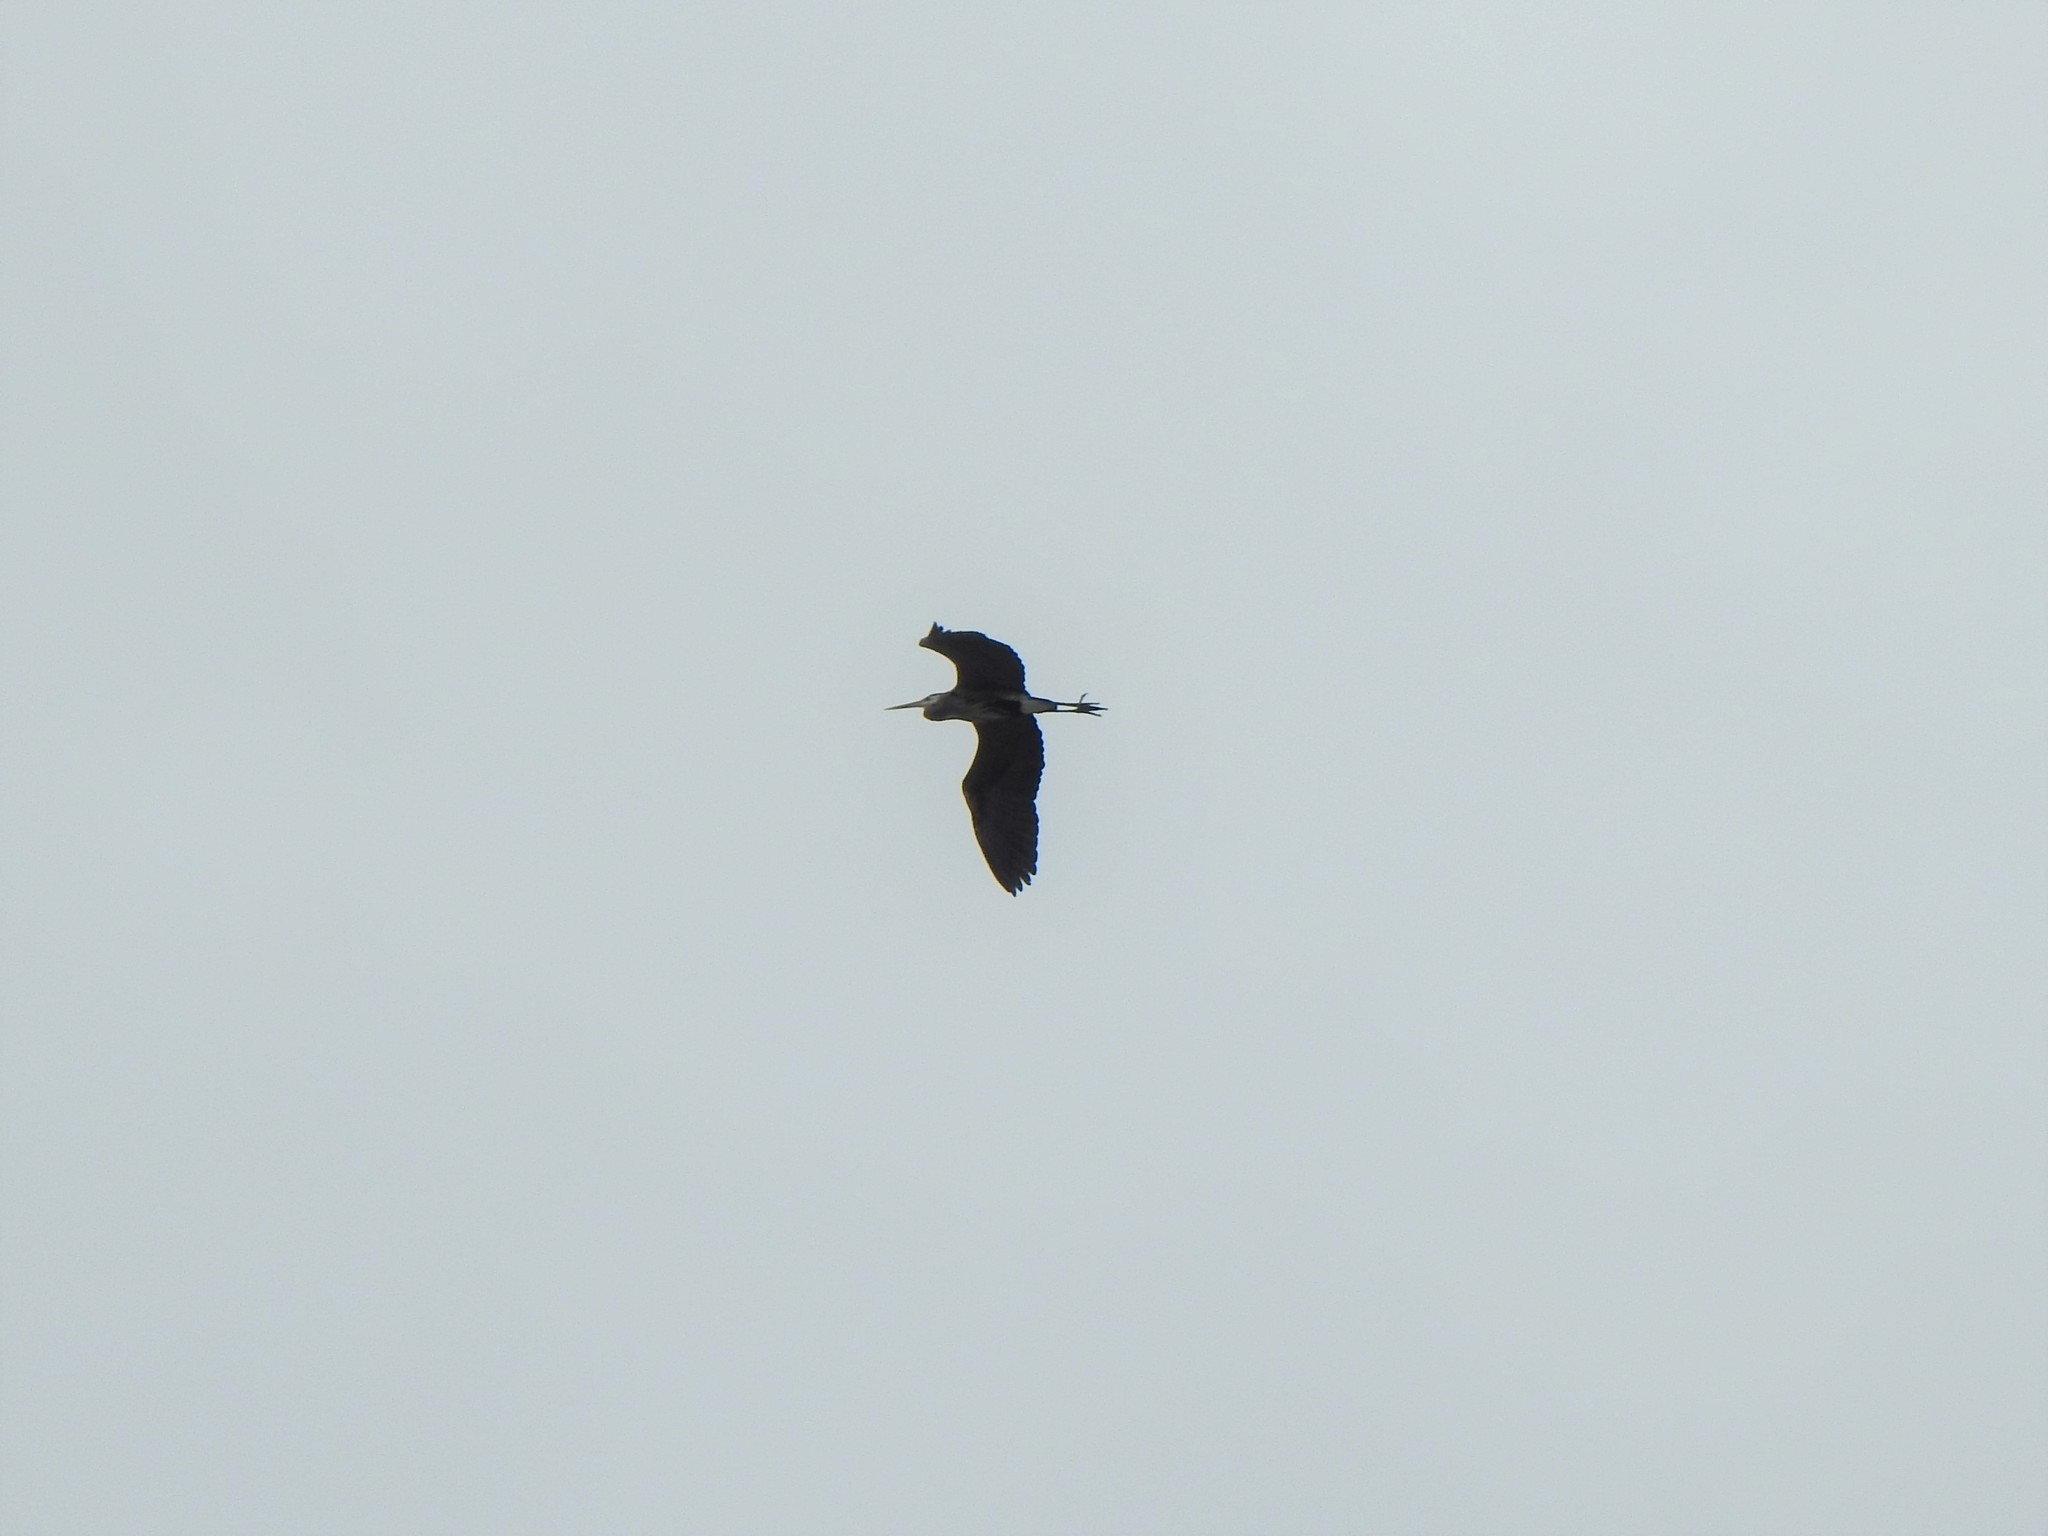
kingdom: Animalia
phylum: Chordata
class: Aves
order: Pelecaniformes
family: Ardeidae
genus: Ardea
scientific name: Ardea herodias
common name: Great blue heron
